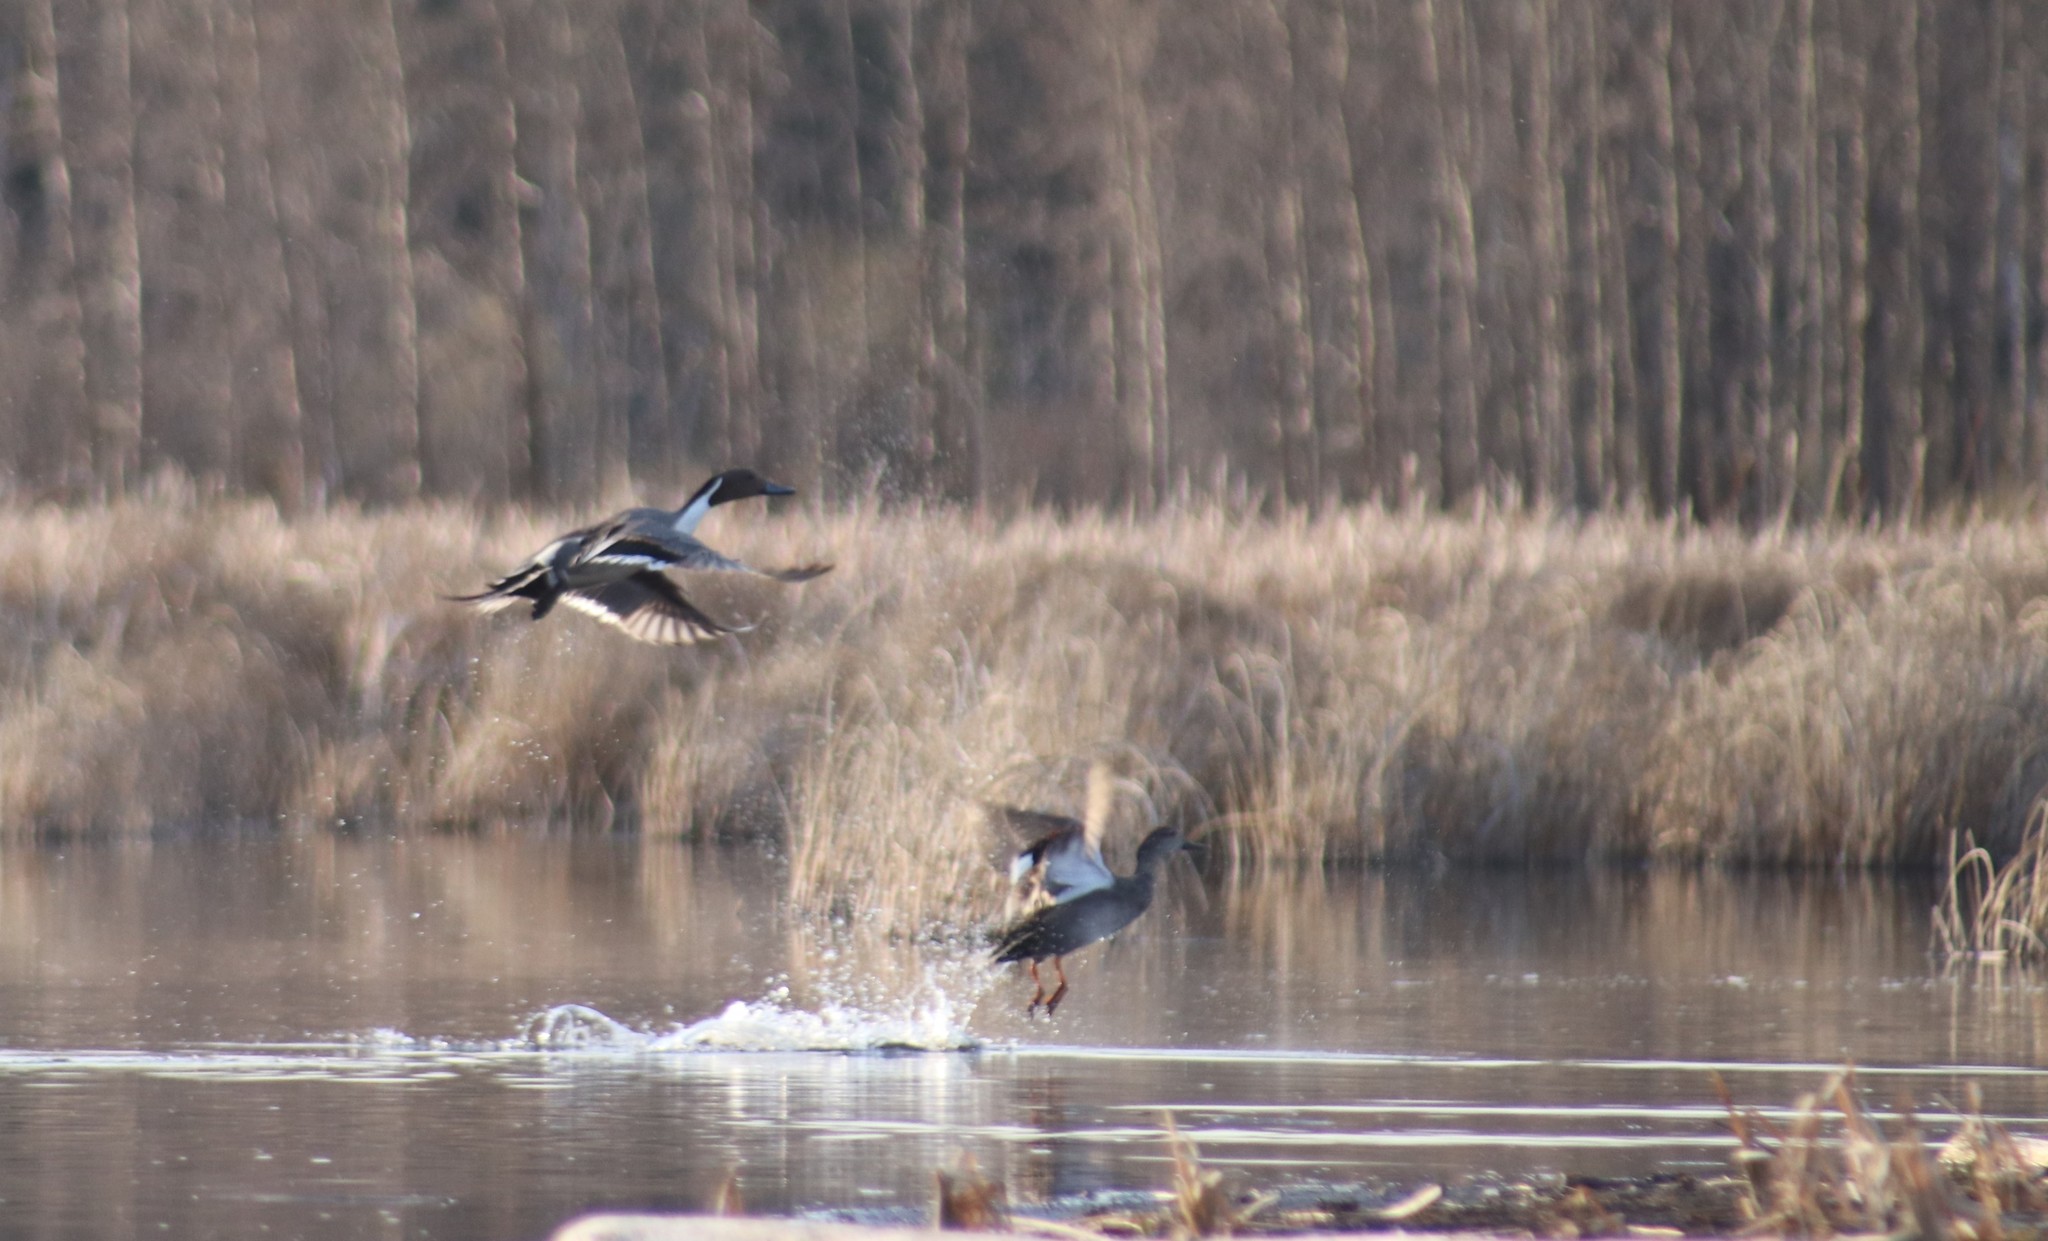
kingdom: Animalia
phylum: Chordata
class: Aves
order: Anseriformes
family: Anatidae
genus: Anas
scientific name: Anas acuta
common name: Northern pintail
